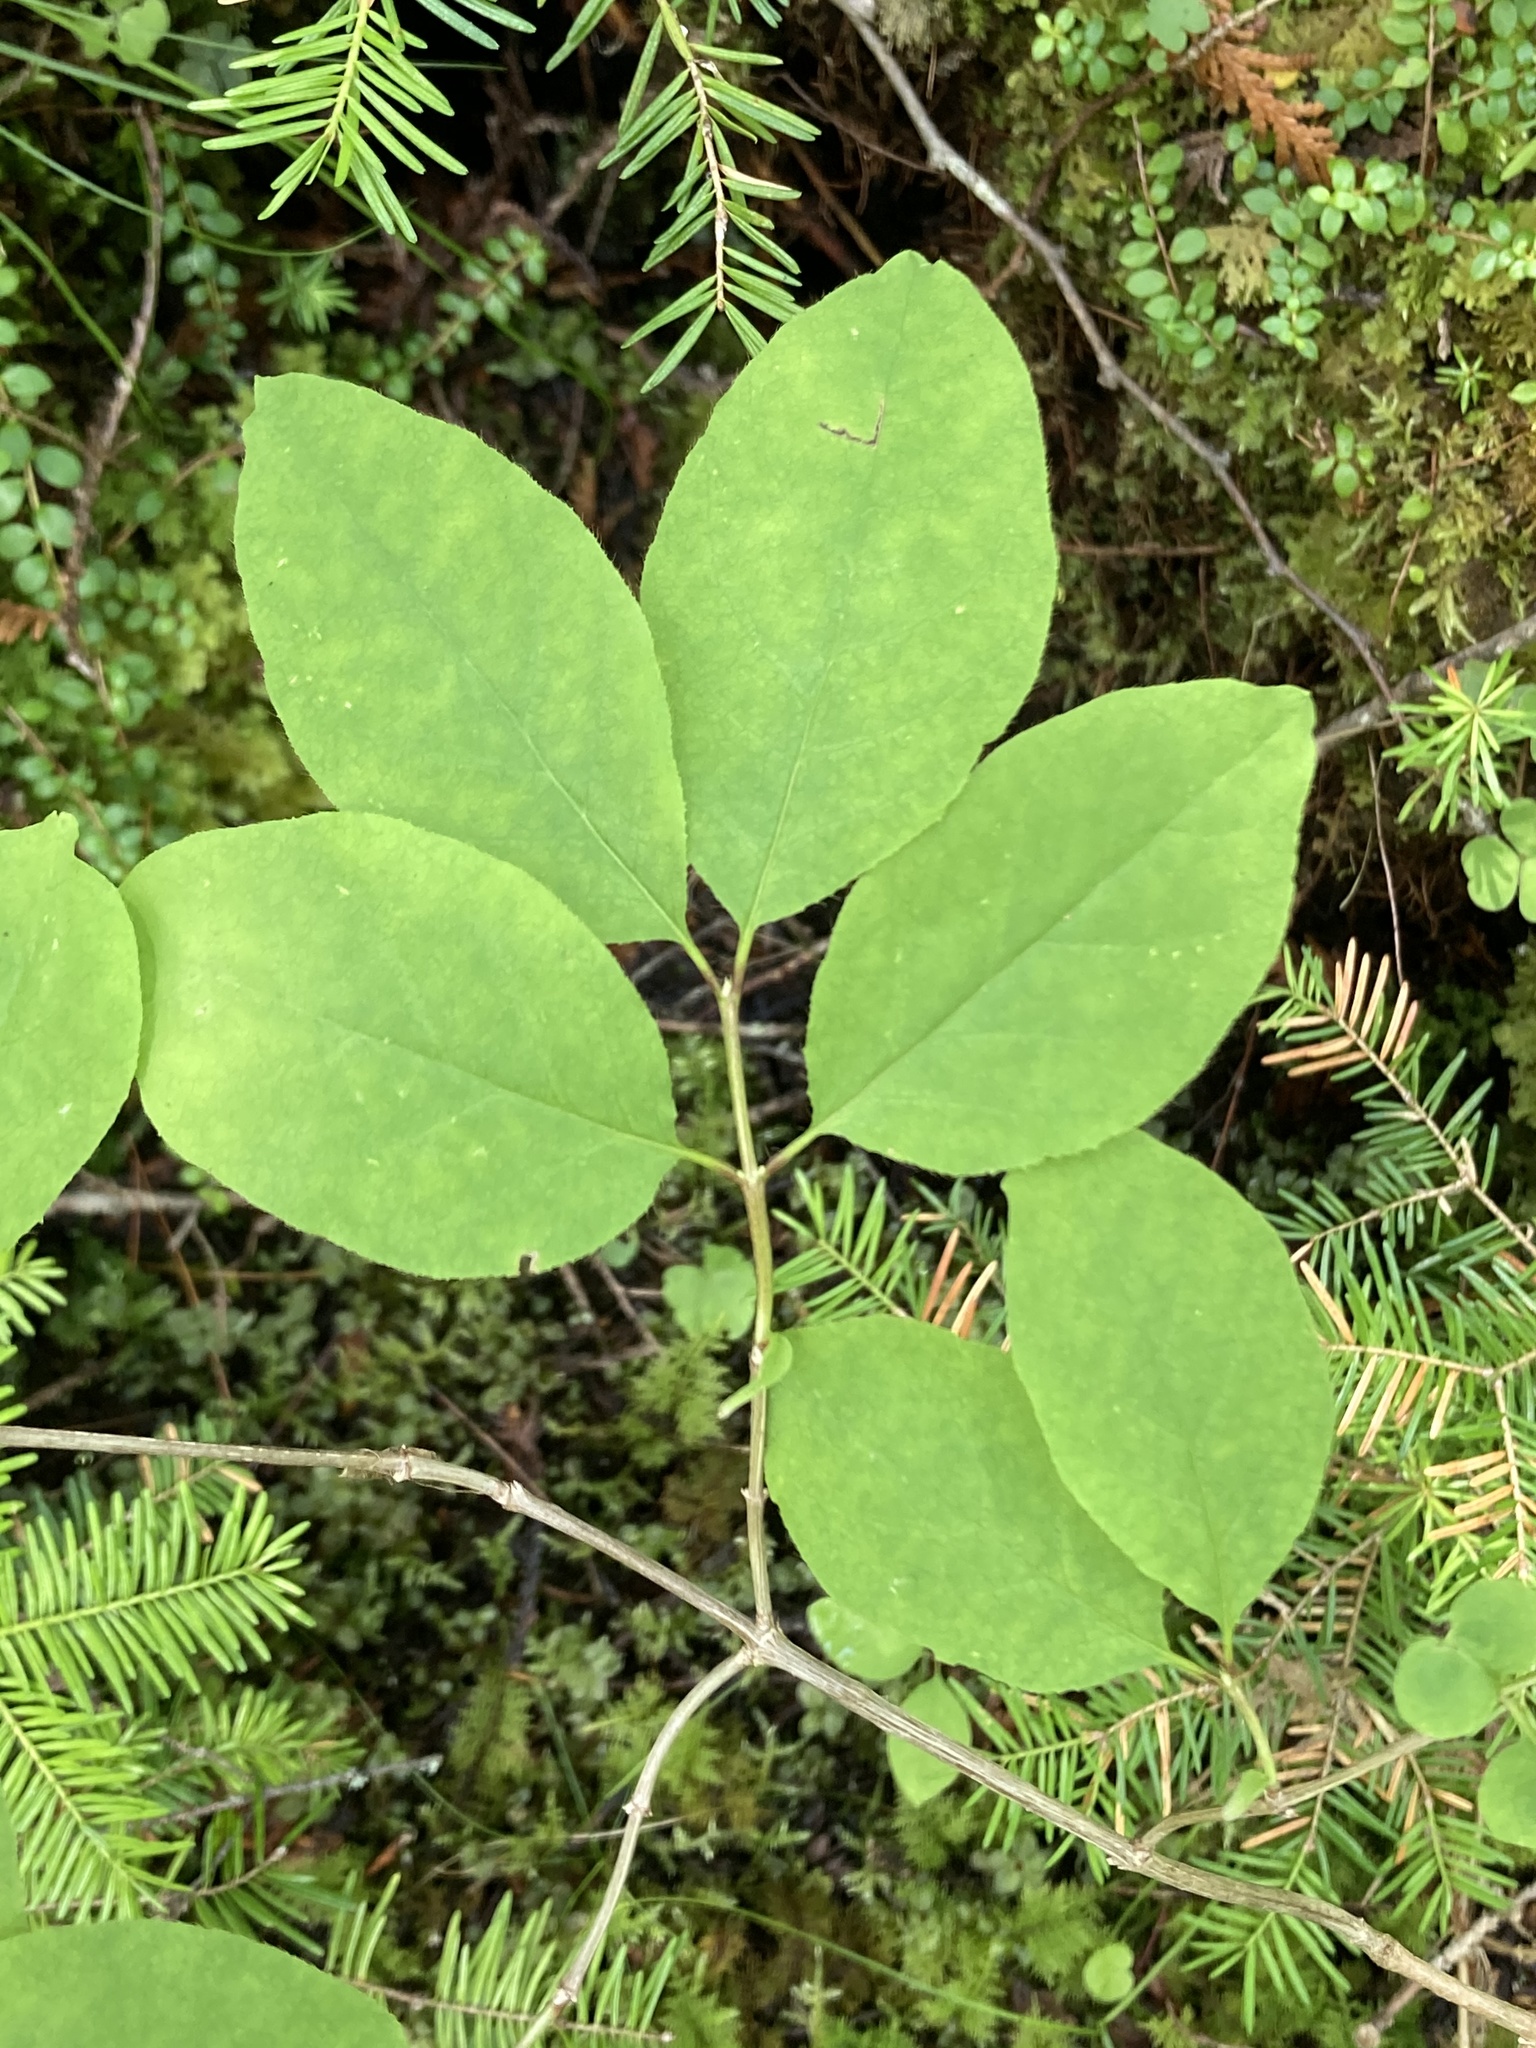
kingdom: Plantae
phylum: Tracheophyta
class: Magnoliopsida
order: Dipsacales
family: Caprifoliaceae
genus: Lonicera
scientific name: Lonicera canadensis
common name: American fly-honeysuckle
